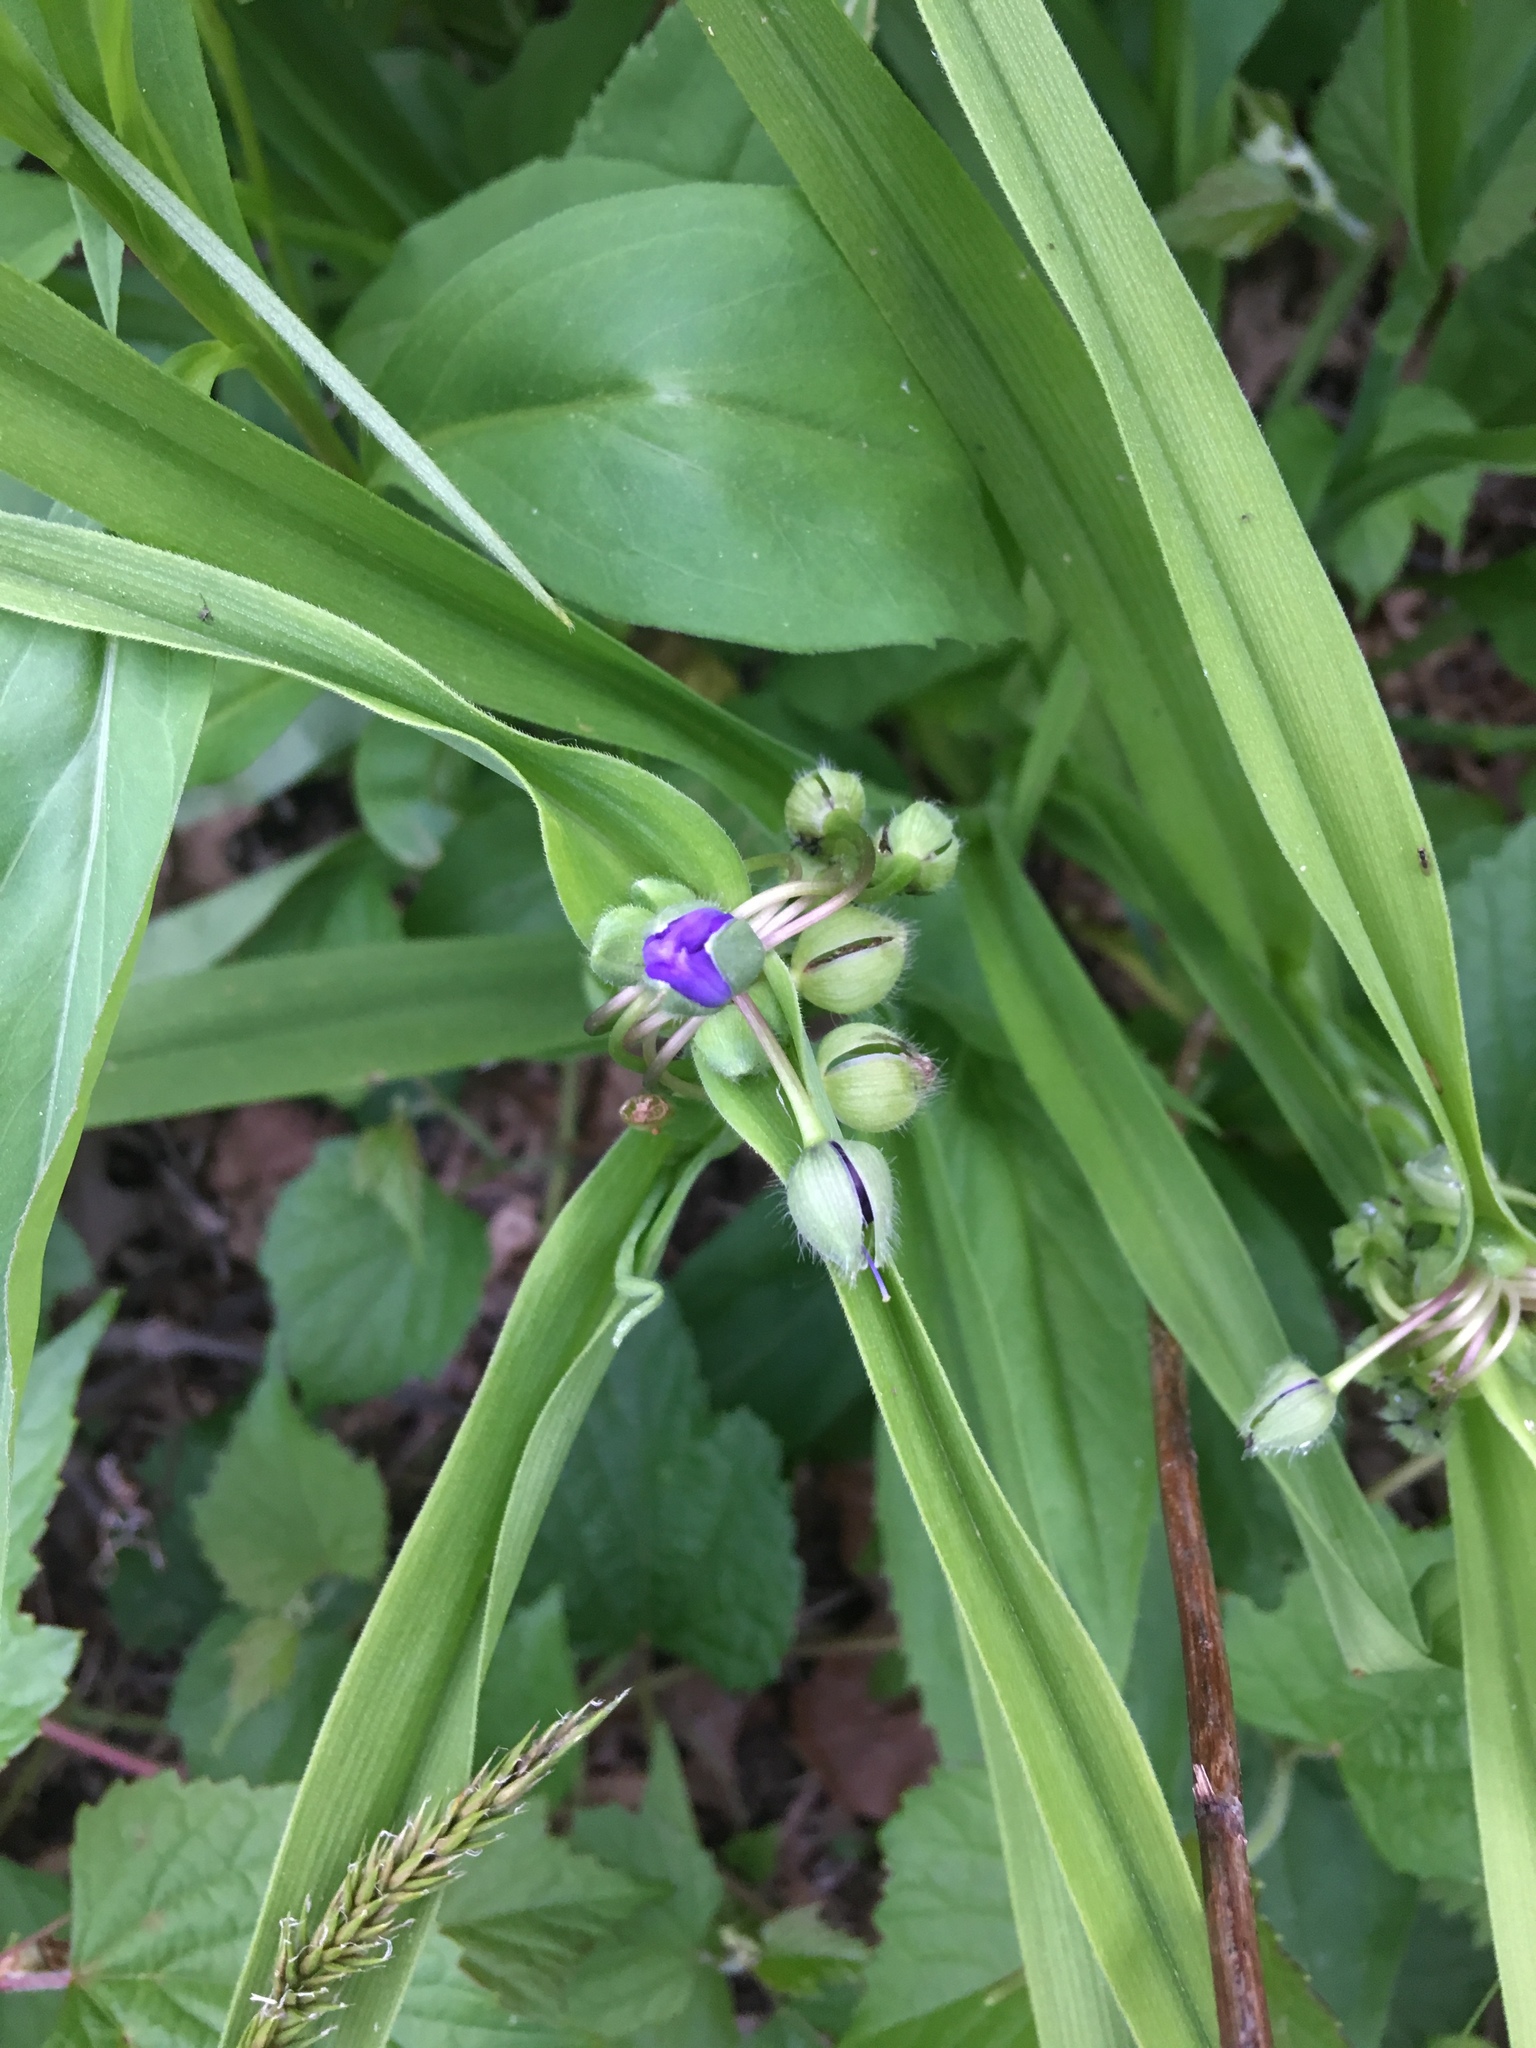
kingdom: Plantae
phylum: Tracheophyta
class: Liliopsida
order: Commelinales
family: Commelinaceae
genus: Tradescantia
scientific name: Tradescantia ohiensis
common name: Ohio spiderwort
